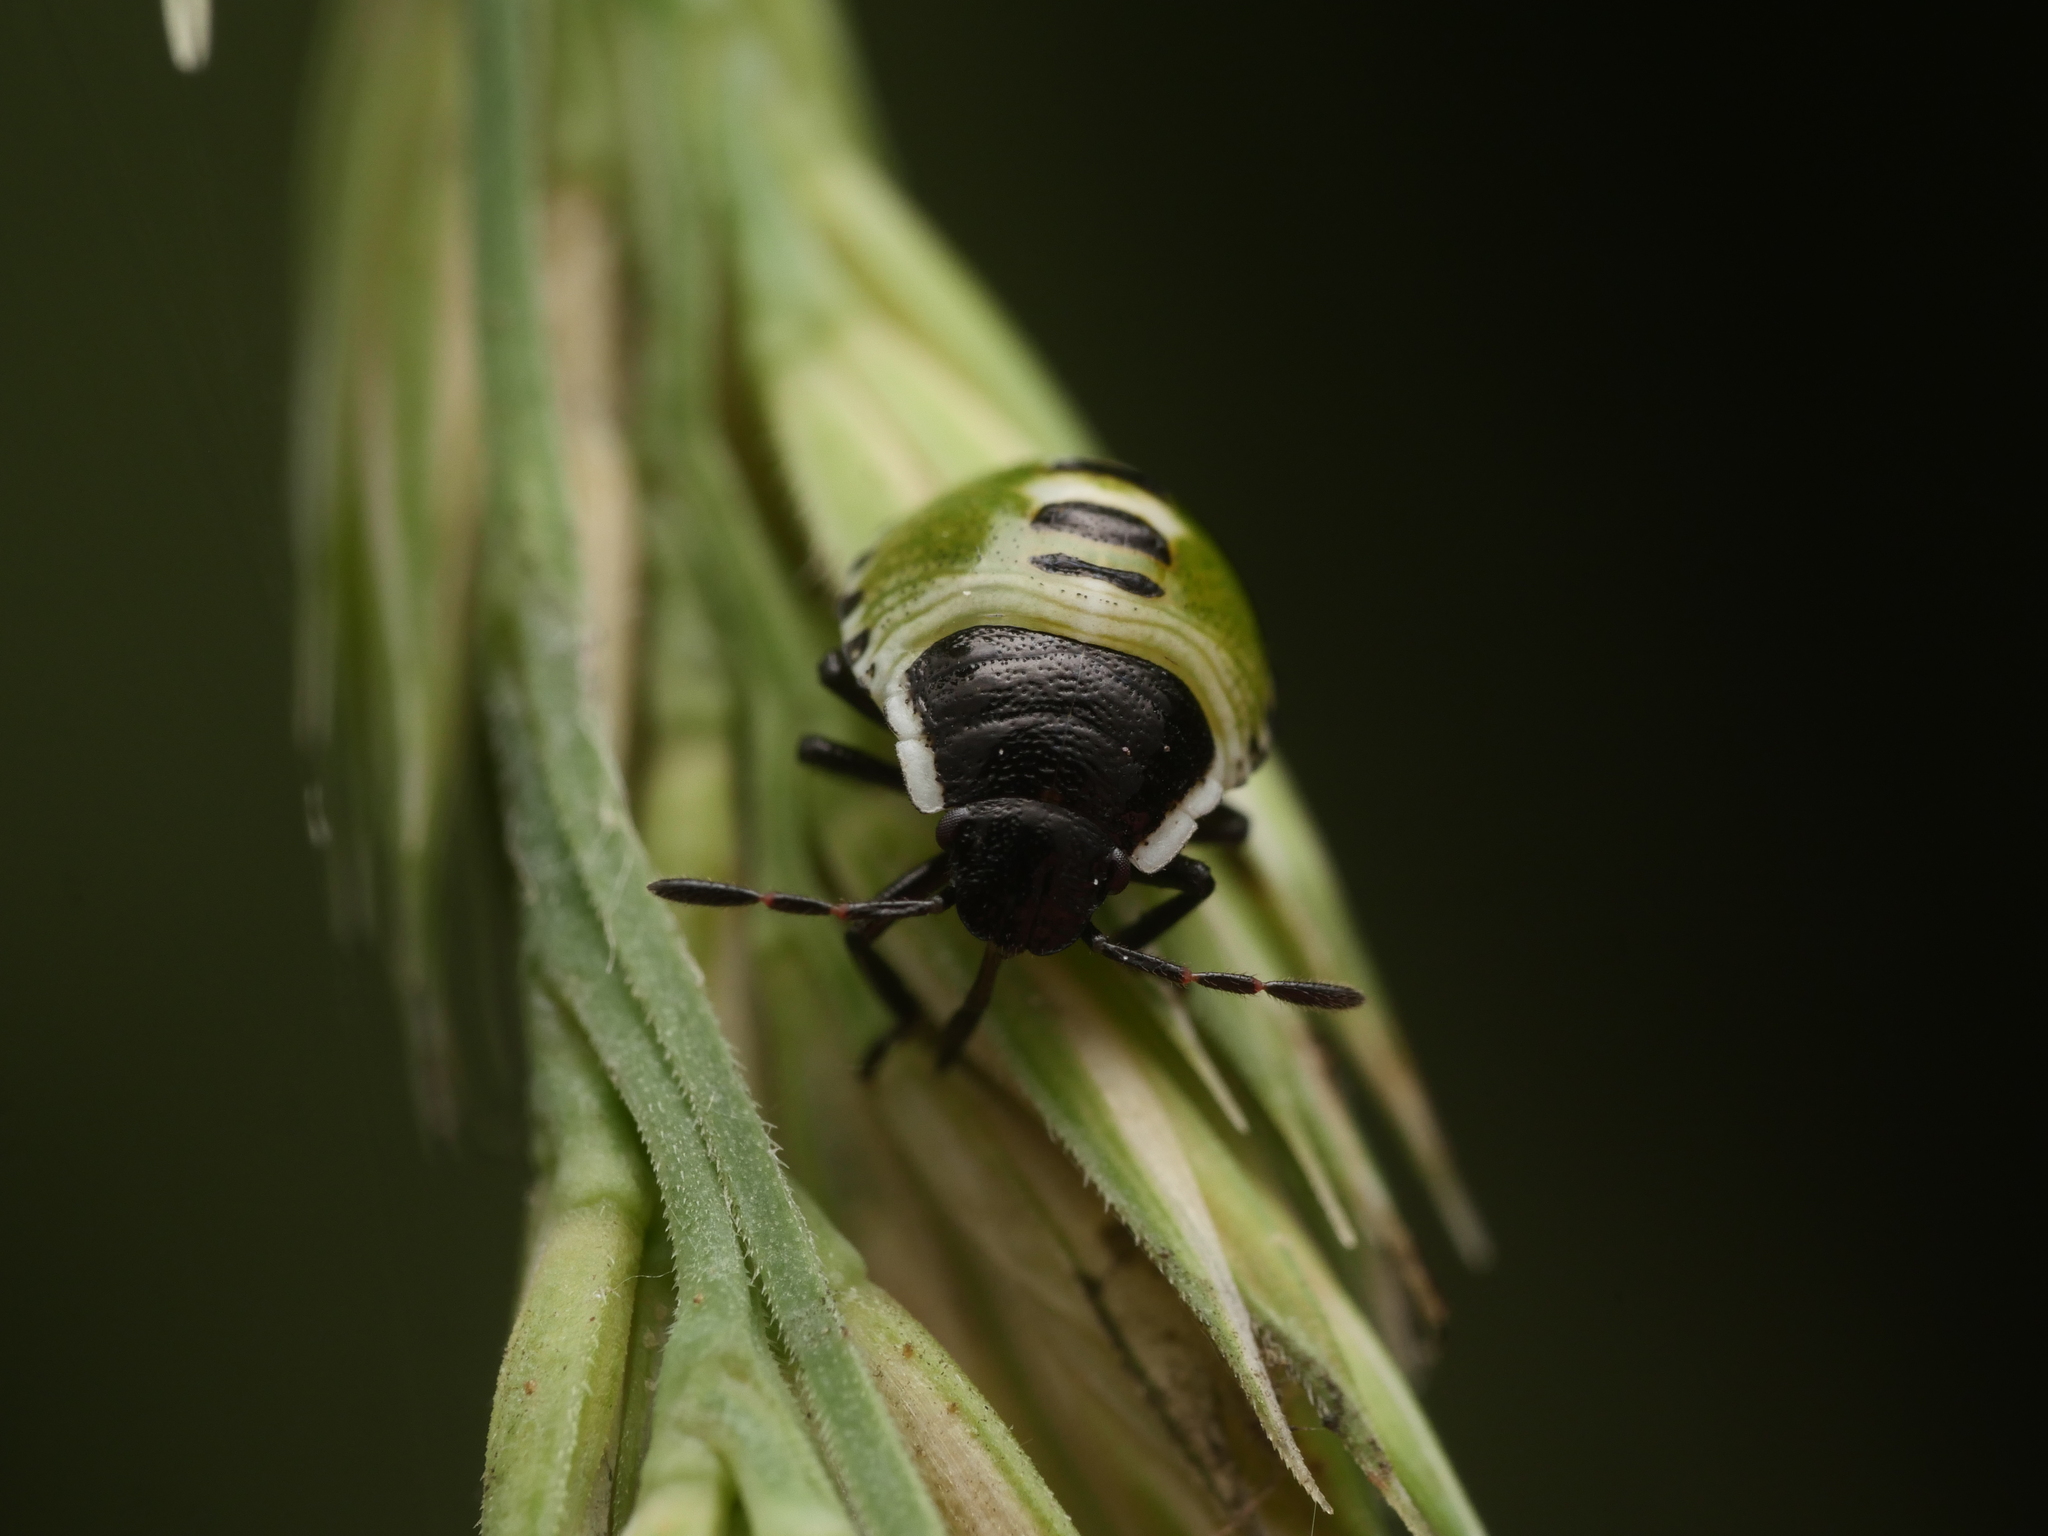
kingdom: Animalia
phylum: Arthropoda
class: Insecta
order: Hemiptera
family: Pentatomidae
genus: Palomena
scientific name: Palomena prasina
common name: Green shieldbug
